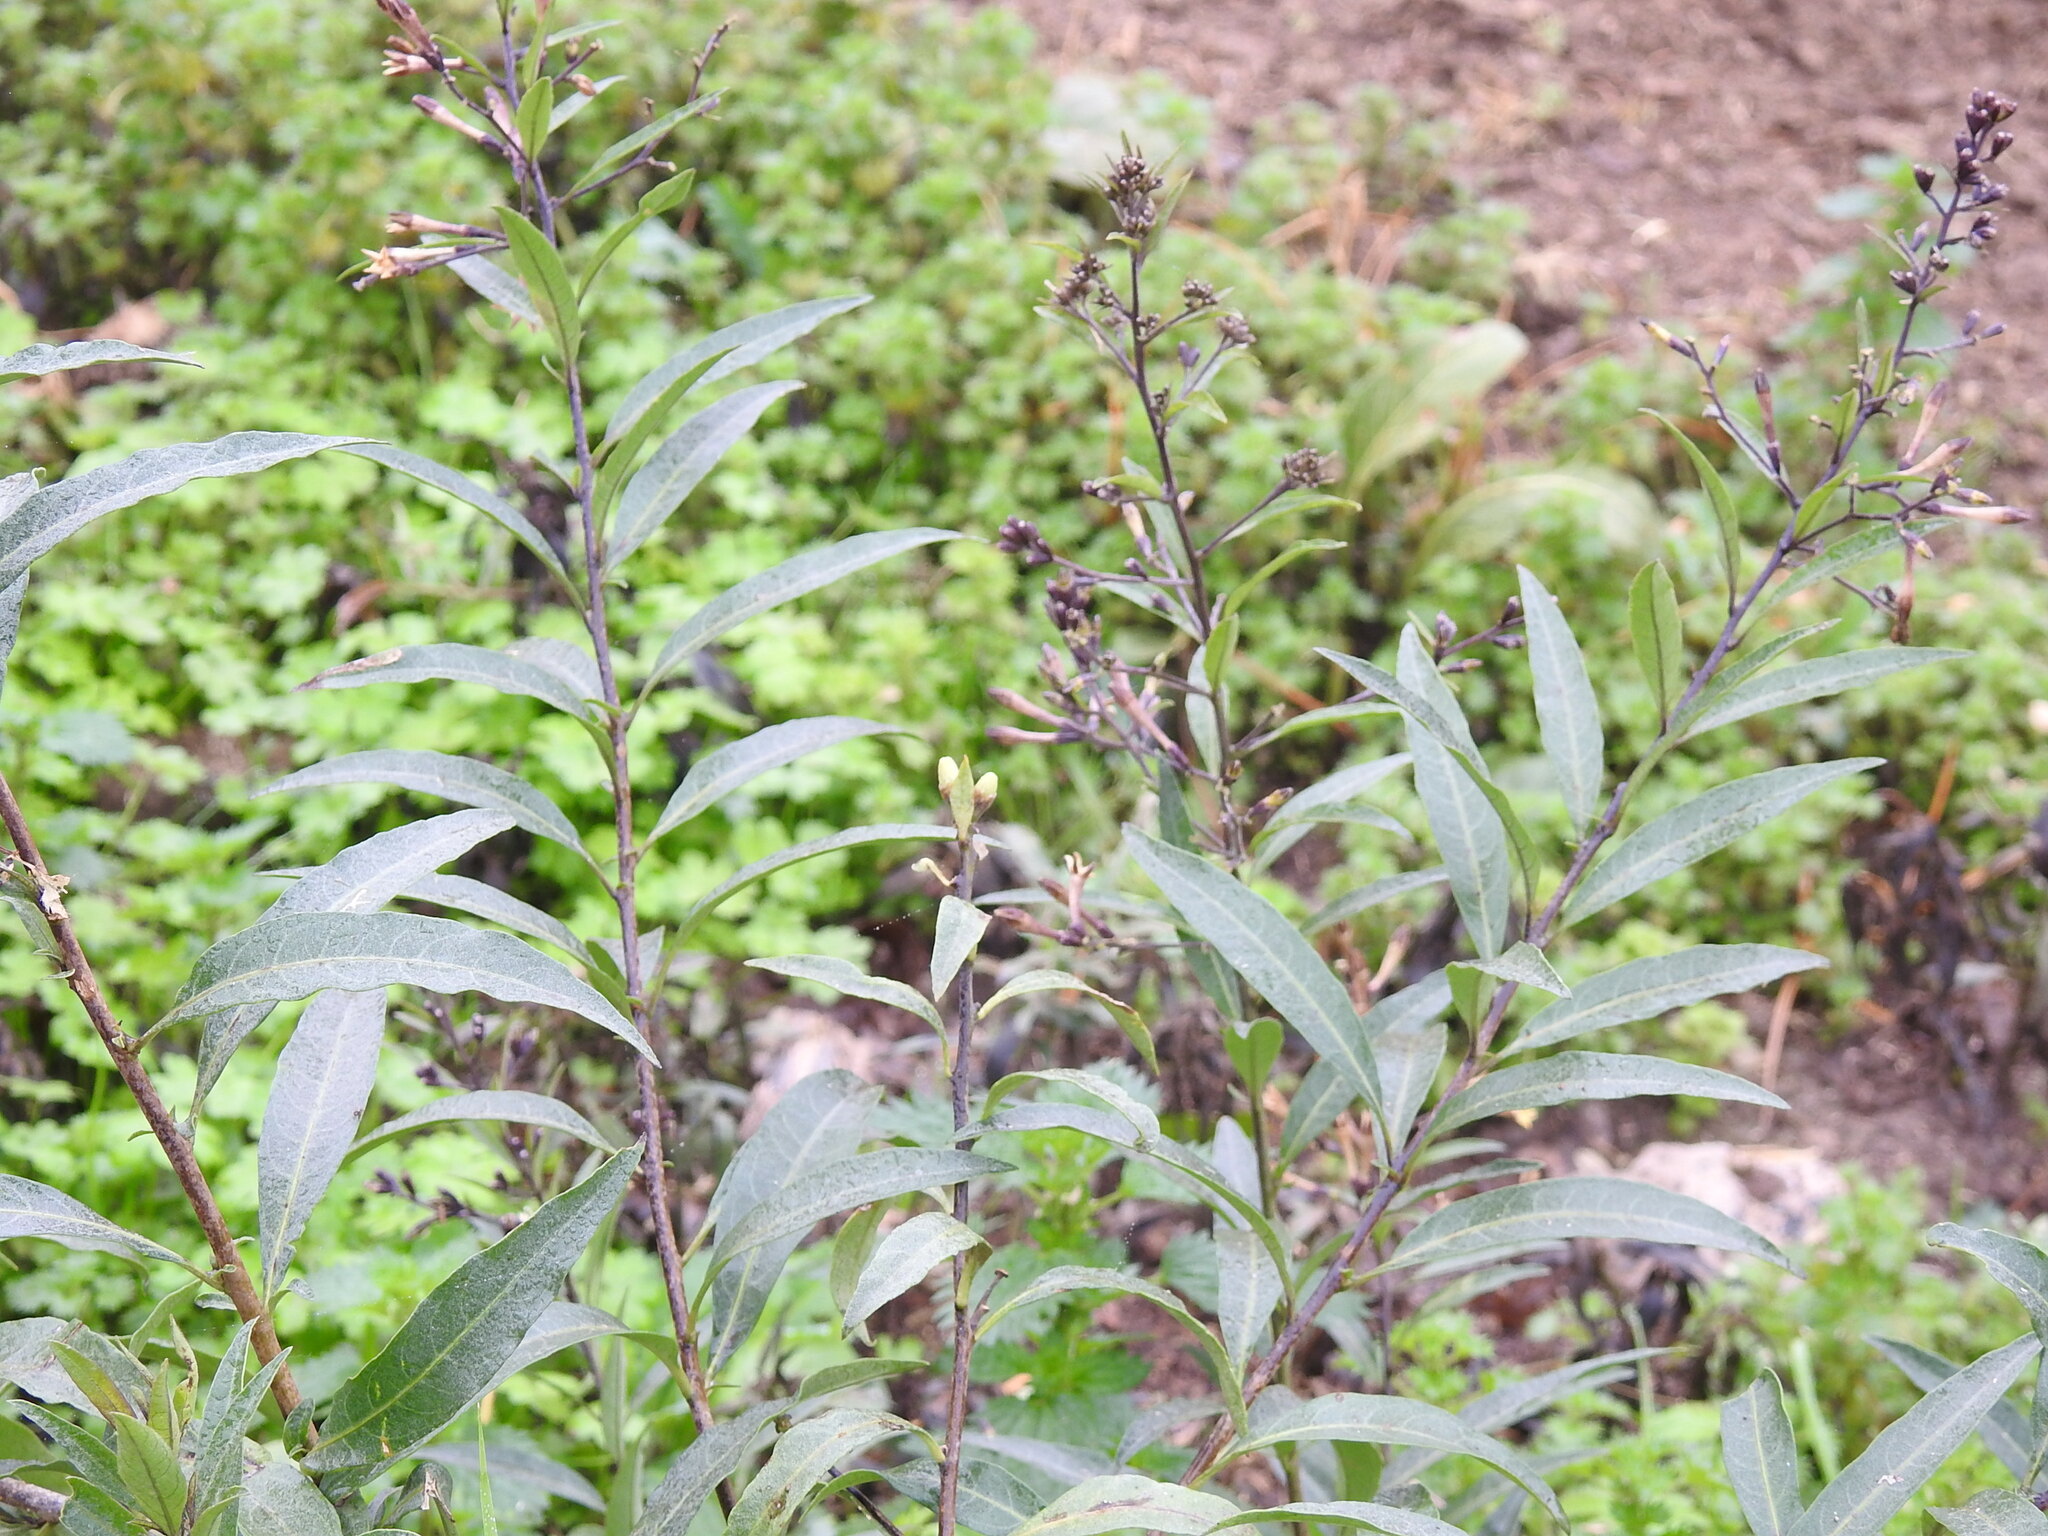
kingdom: Plantae
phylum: Tracheophyta
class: Magnoliopsida
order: Solanales
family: Solanaceae
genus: Cestrum
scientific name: Cestrum parqui
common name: Chilean cestrum
